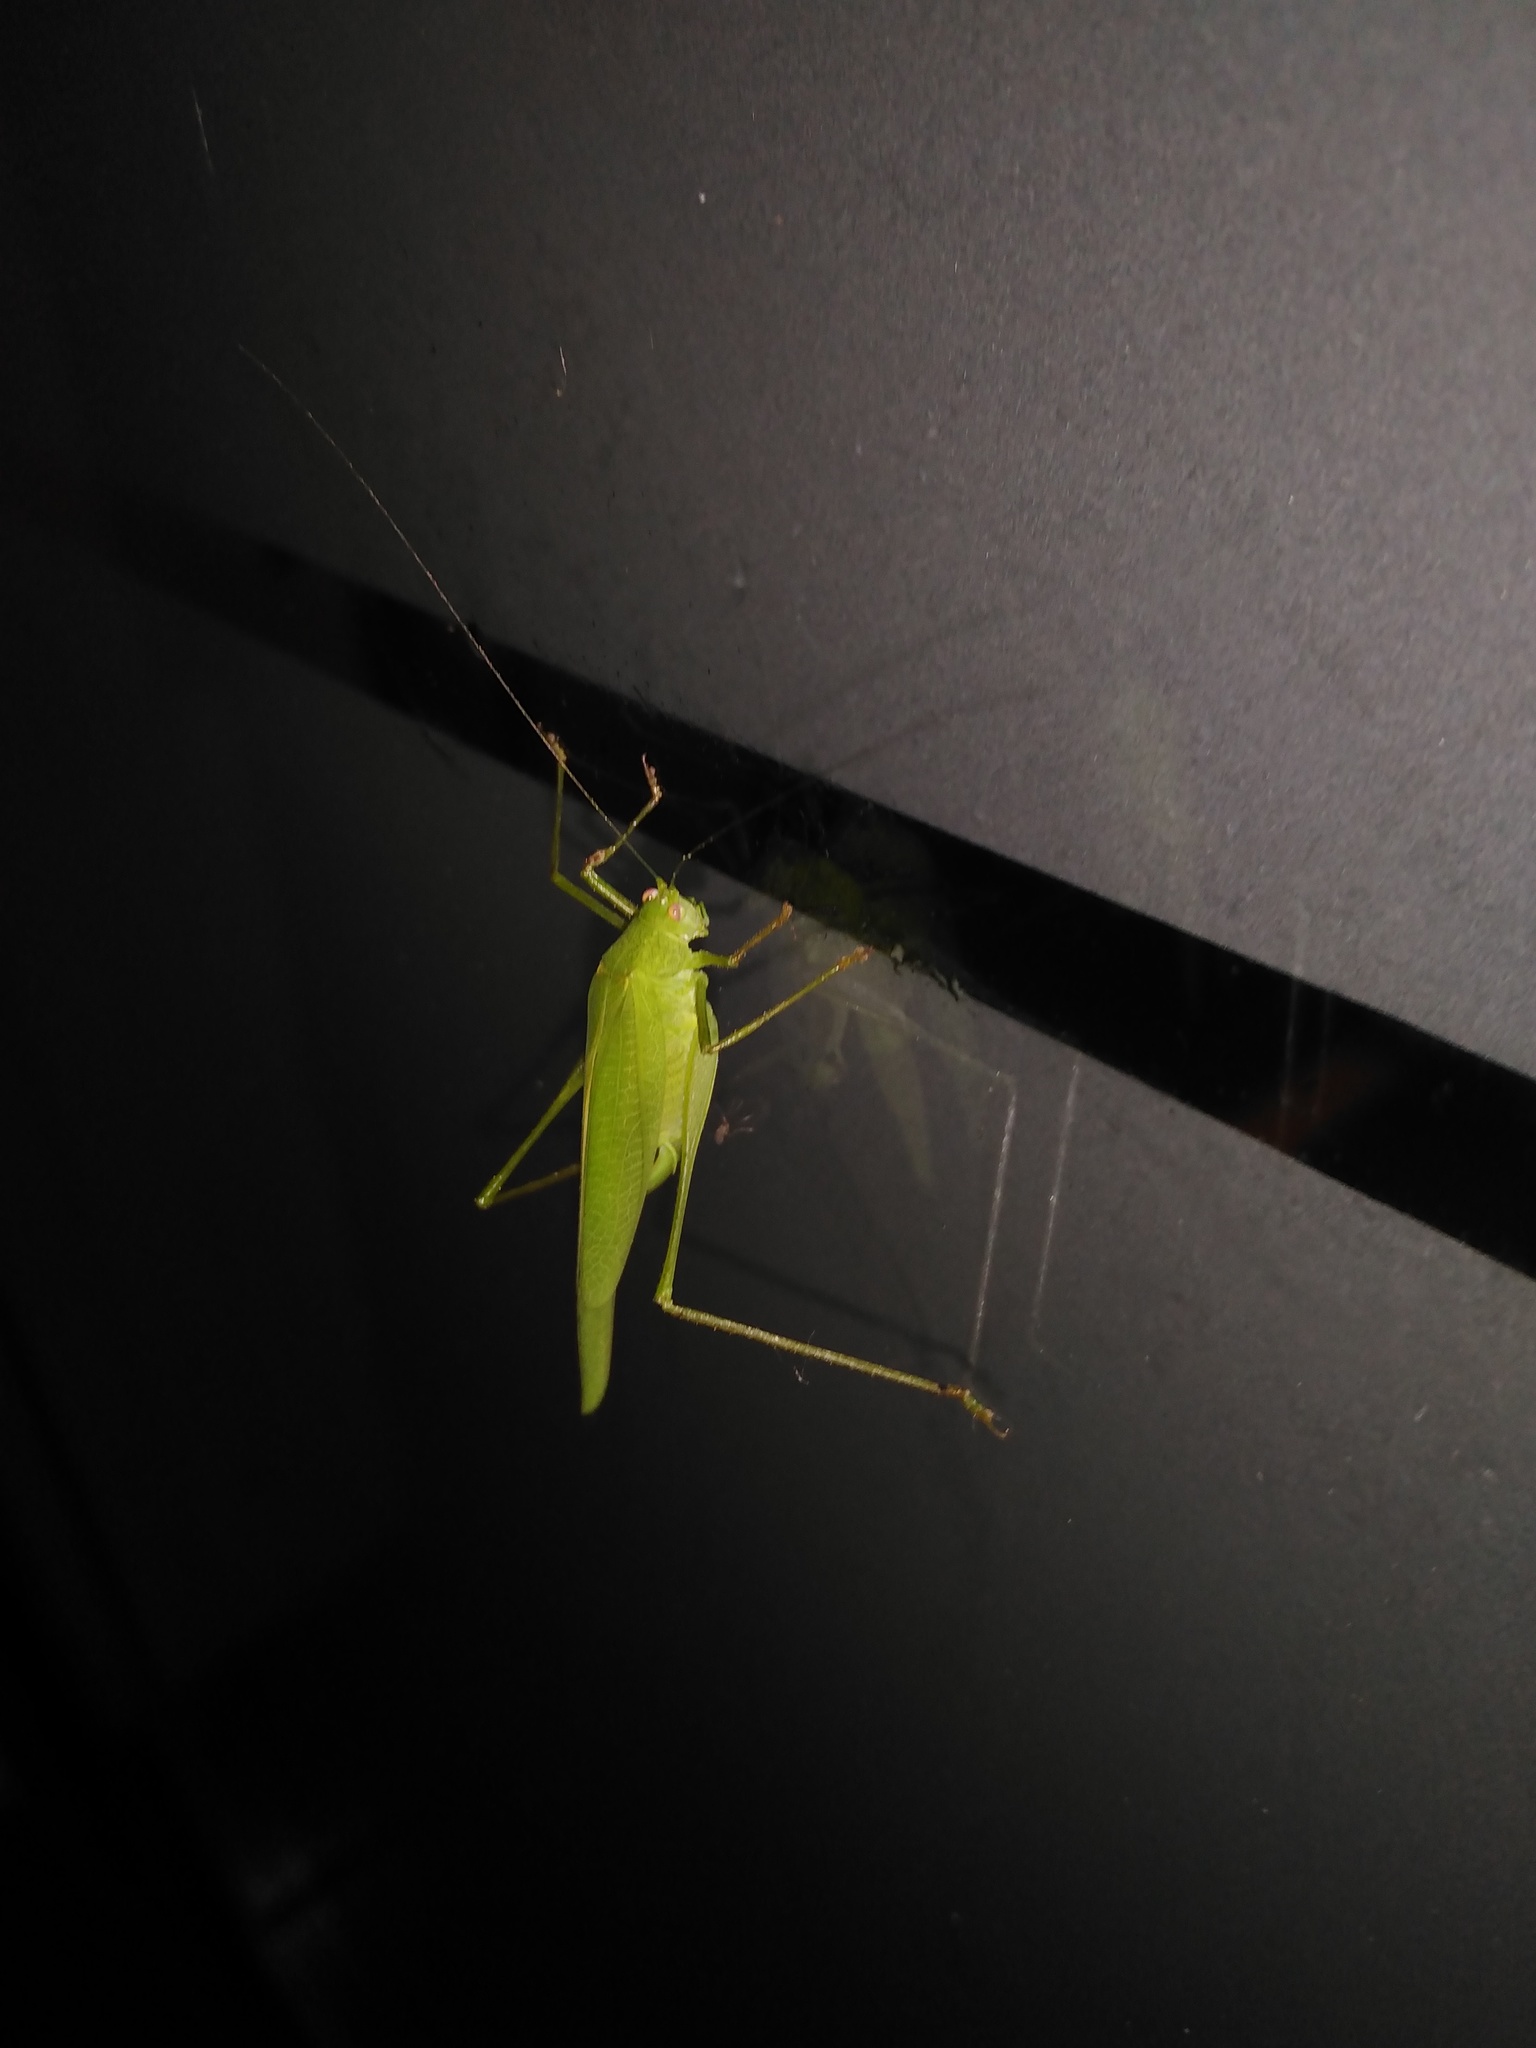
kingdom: Animalia
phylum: Arthropoda
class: Insecta
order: Orthoptera
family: Tettigoniidae
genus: Phaneroptera
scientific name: Phaneroptera nana
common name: Southern sickle bush-cricket
